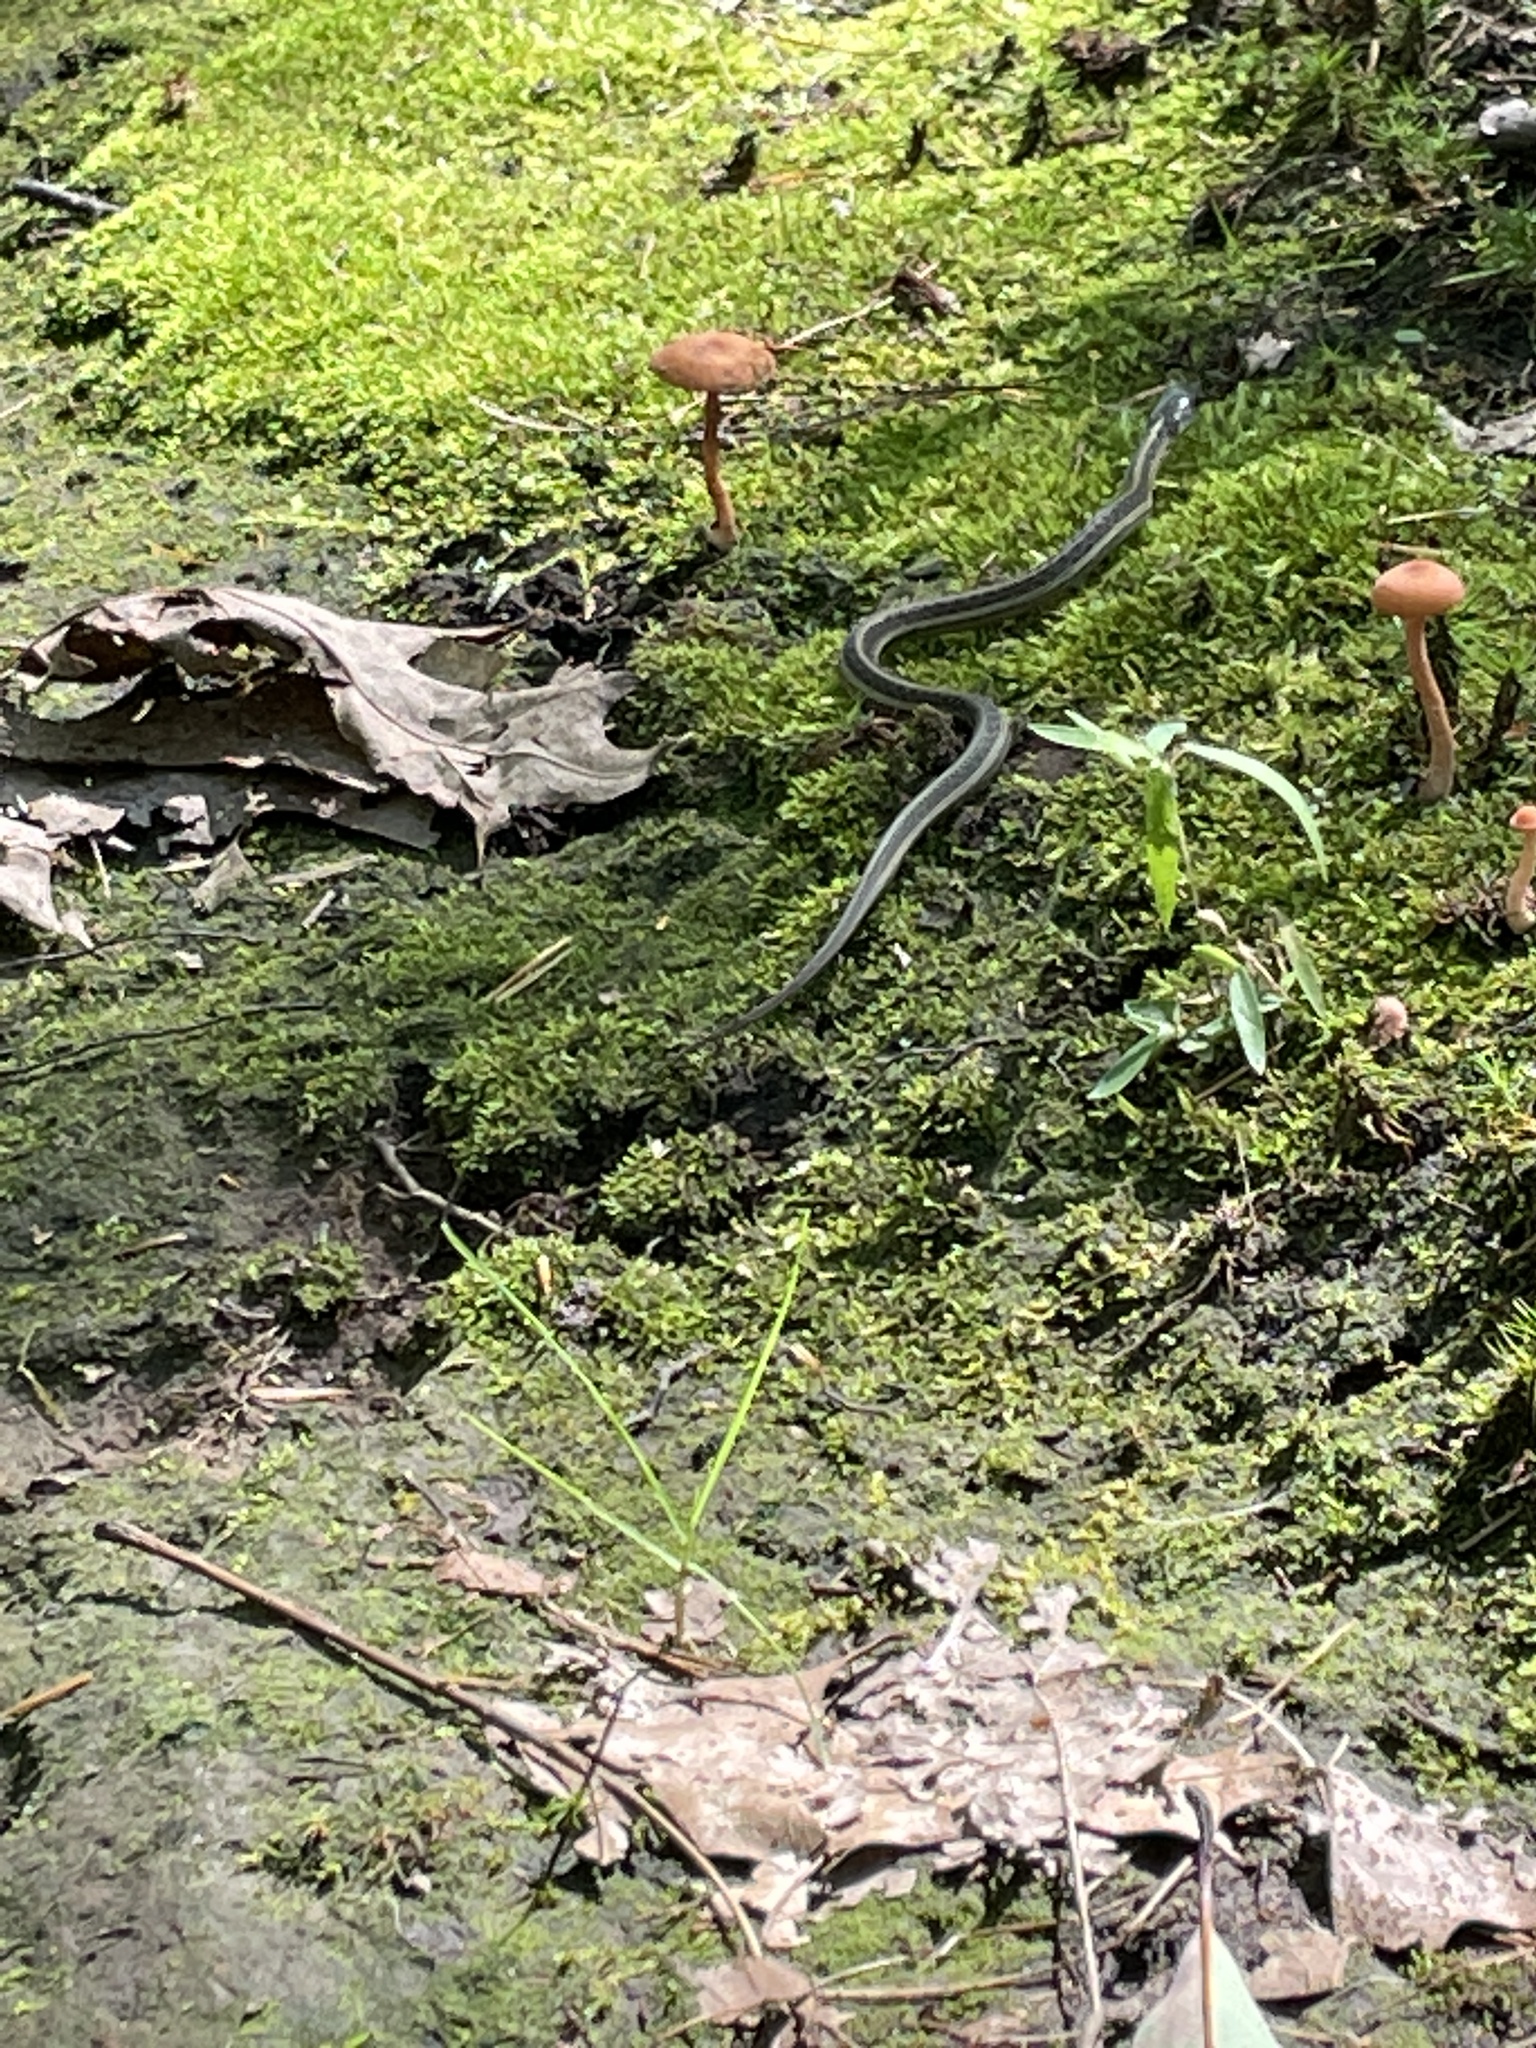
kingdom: Animalia
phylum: Chordata
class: Squamata
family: Colubridae
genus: Thamnophis
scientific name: Thamnophis sirtalis
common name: Common garter snake
